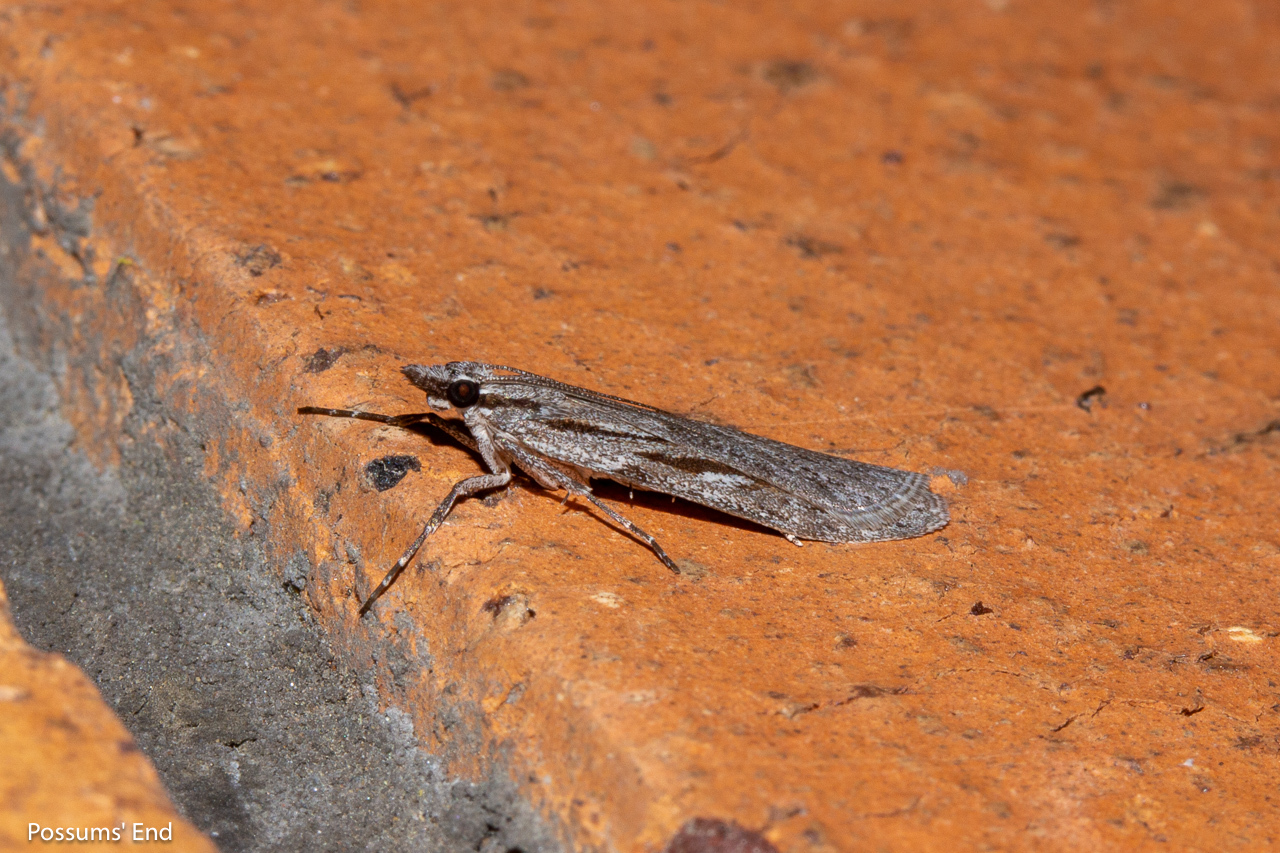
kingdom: Animalia
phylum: Arthropoda
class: Insecta
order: Lepidoptera
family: Crambidae
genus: Scoparia
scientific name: Scoparia indistinctalis
